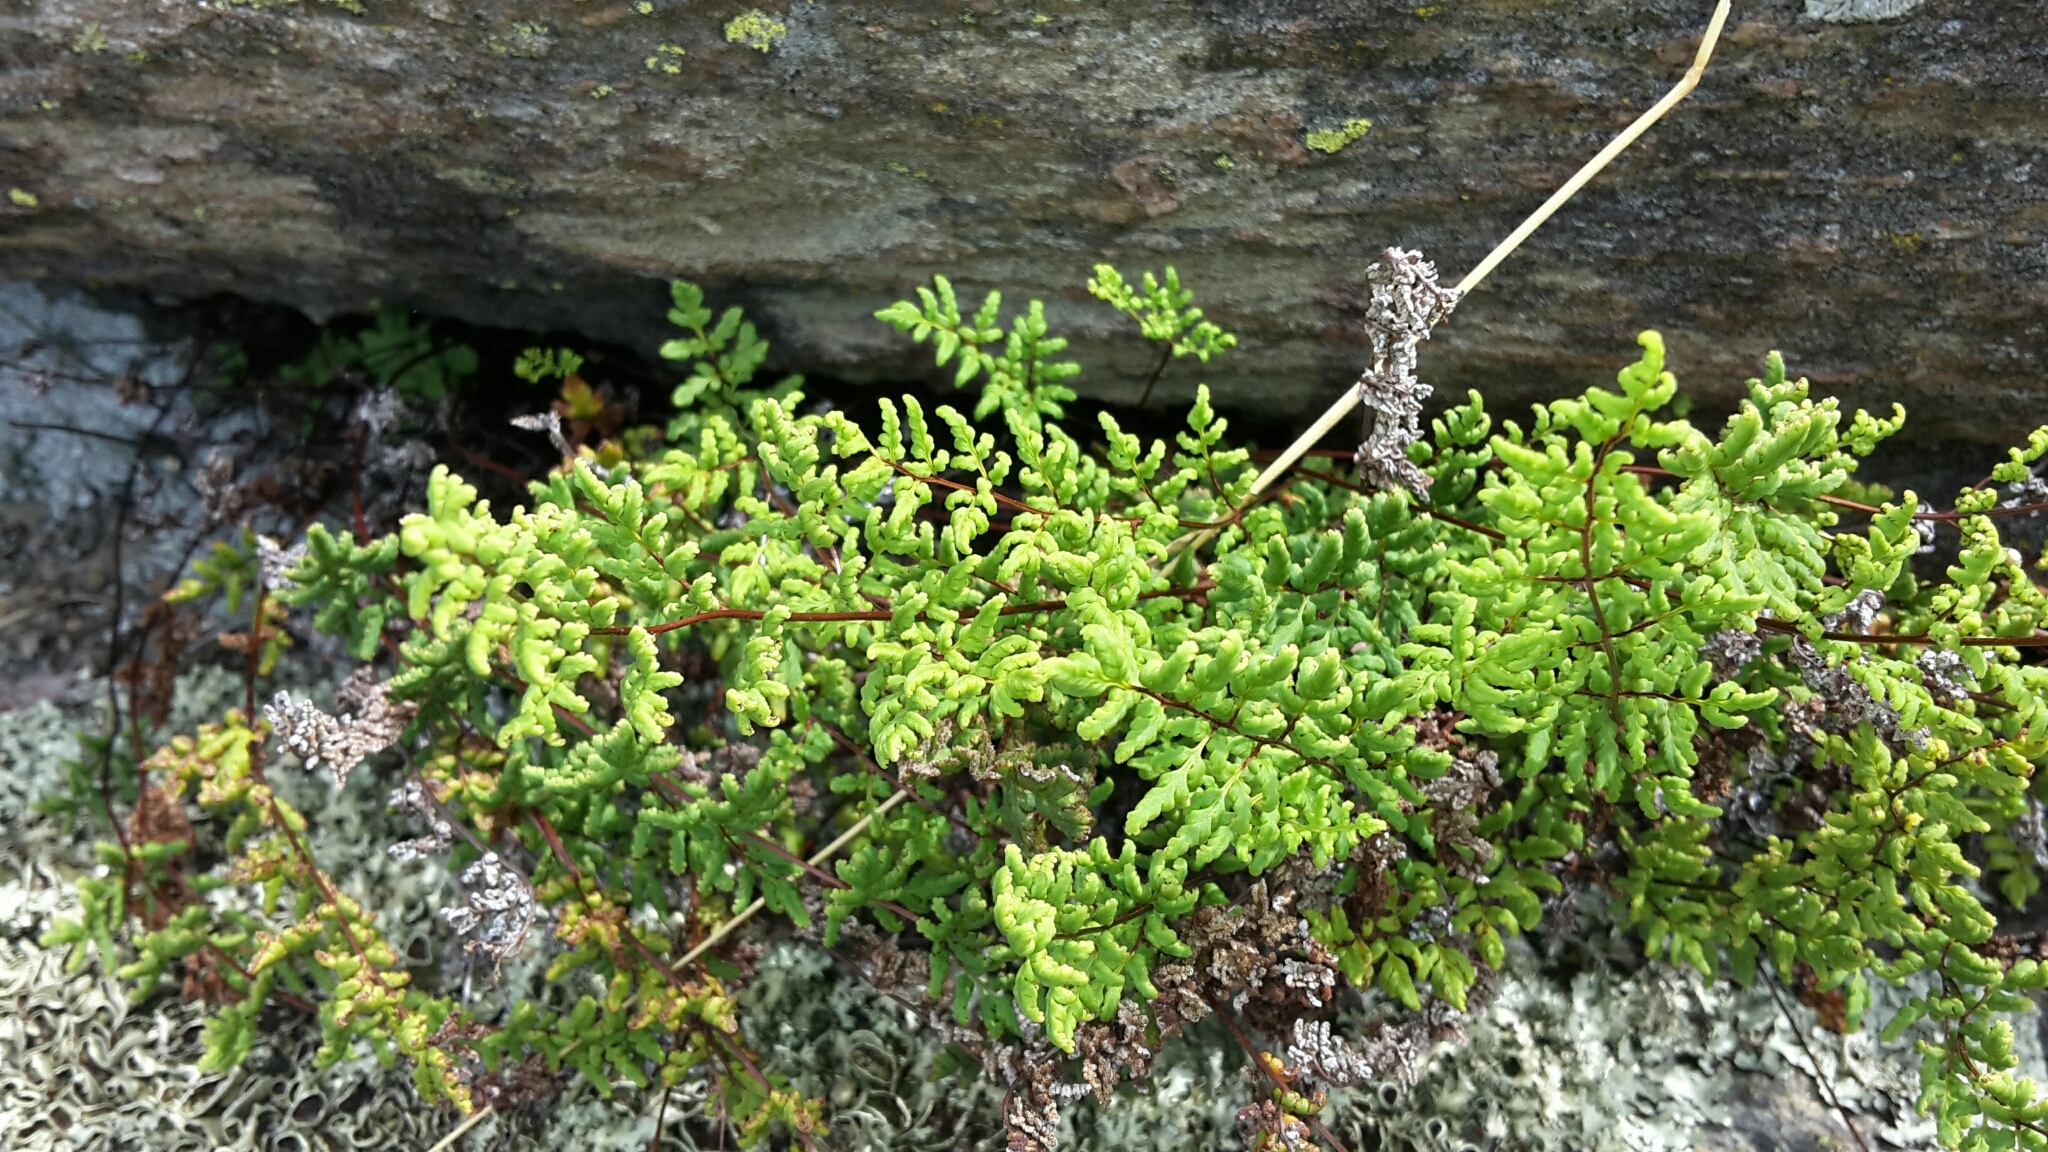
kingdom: Plantae
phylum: Tracheophyta
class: Polypodiopsida
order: Polypodiales
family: Pteridaceae
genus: Cheilanthes
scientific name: Cheilanthes sieberi
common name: Mulga fern
